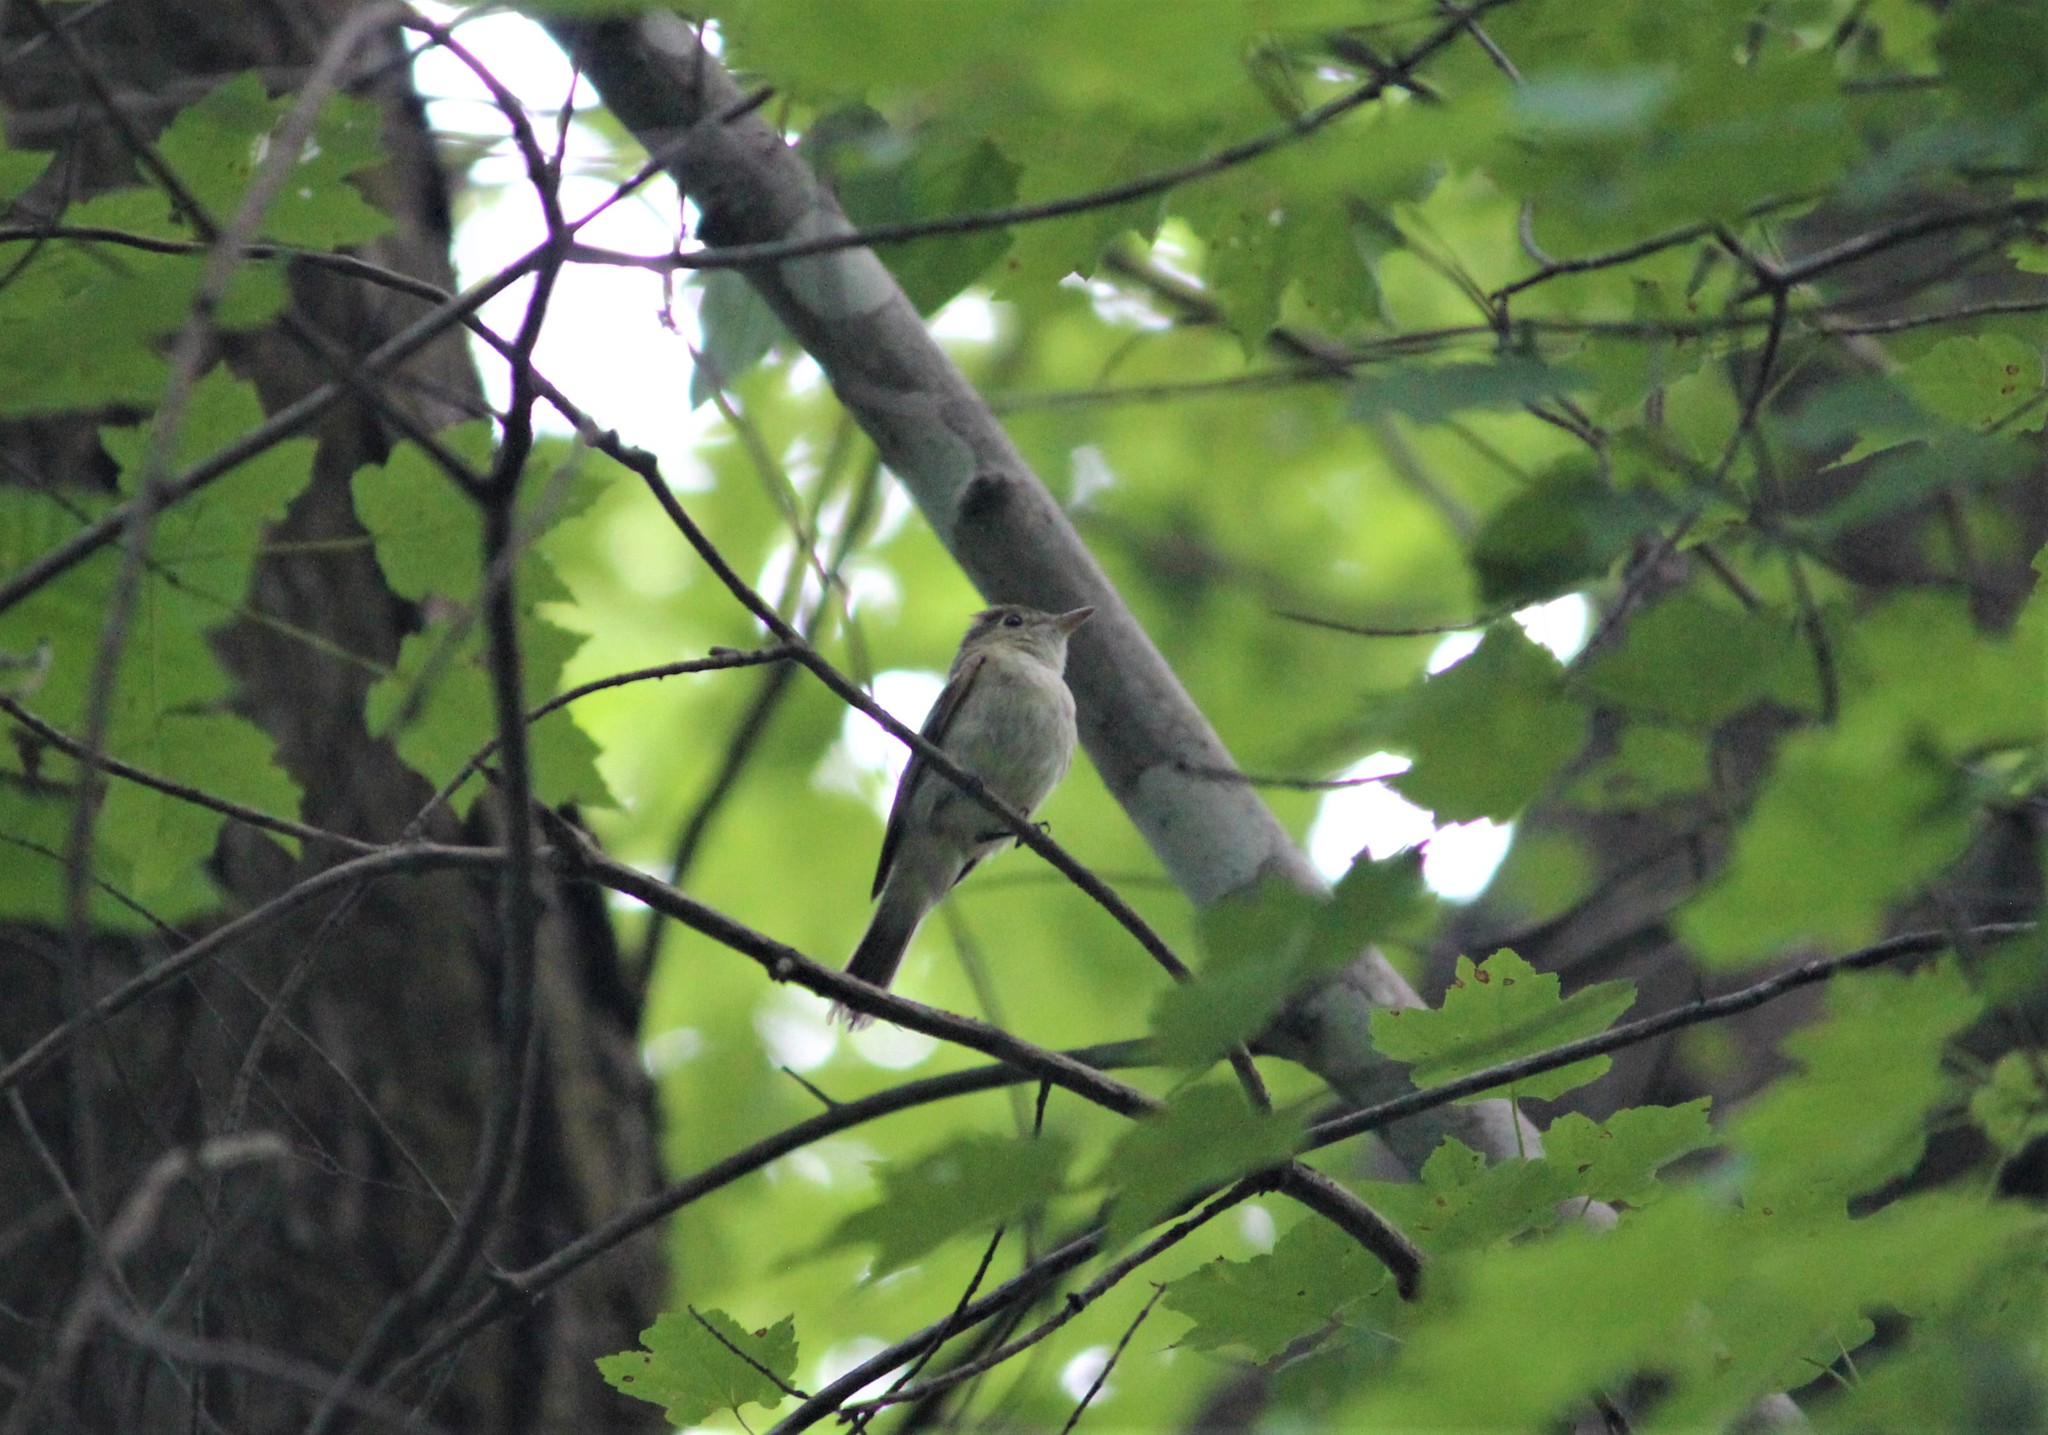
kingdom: Animalia
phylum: Chordata
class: Aves
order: Passeriformes
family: Tyrannidae
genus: Empidonax
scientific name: Empidonax virescens
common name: Acadian flycatcher
